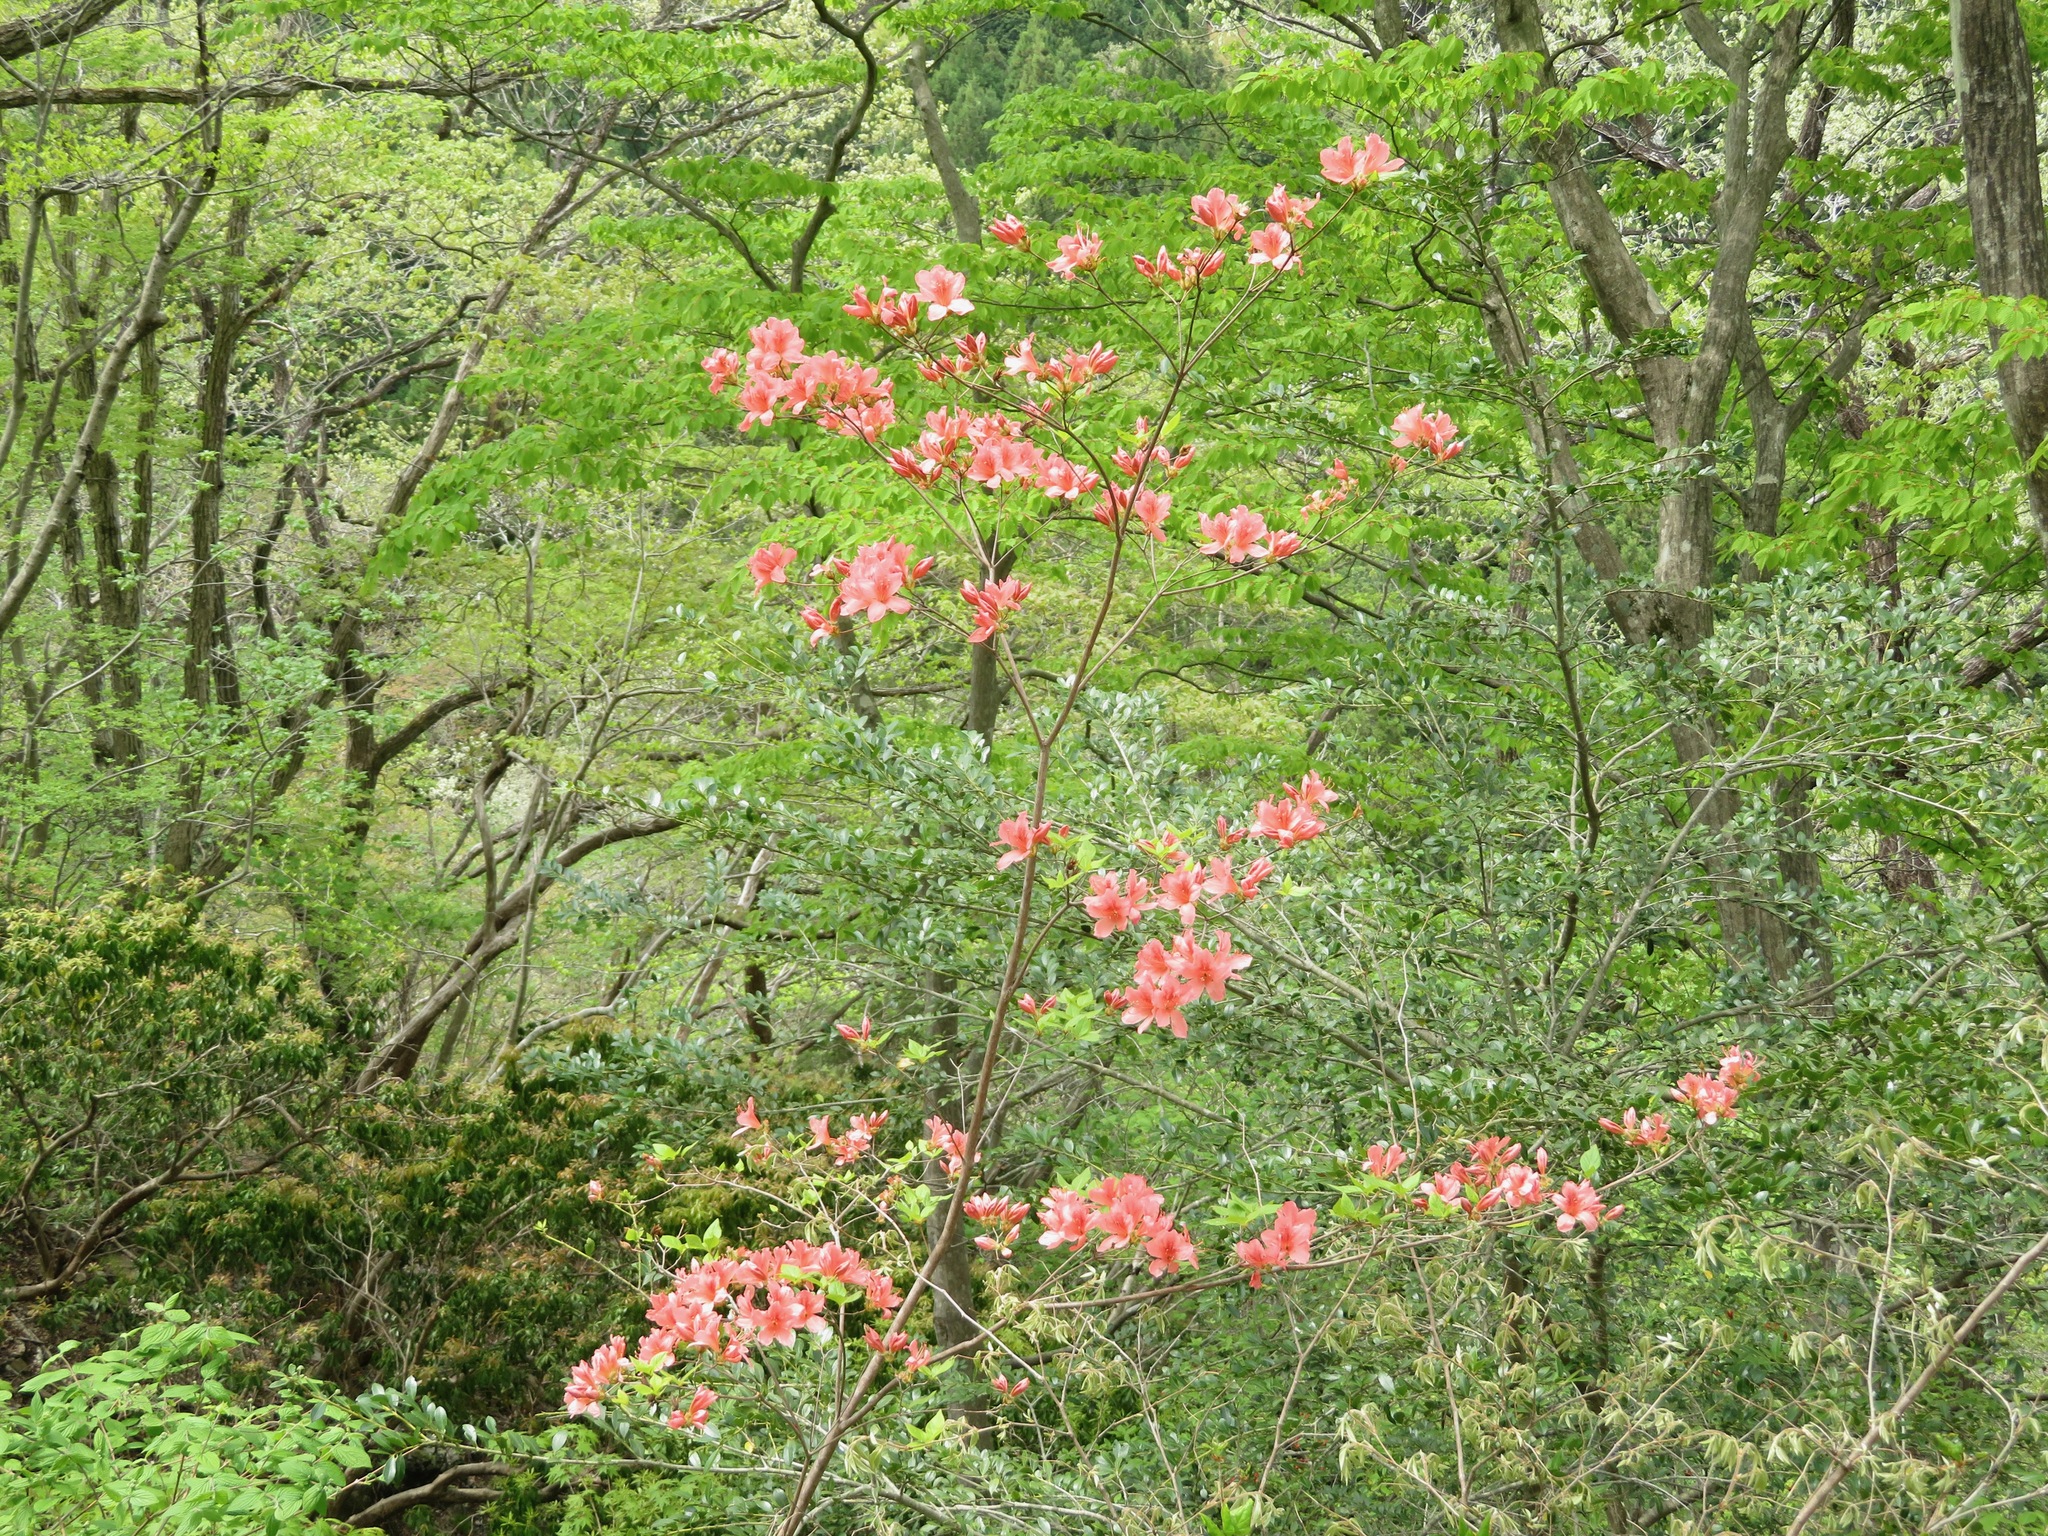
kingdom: Plantae
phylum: Tracheophyta
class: Magnoliopsida
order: Ericales
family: Ericaceae
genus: Rhododendron
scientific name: Rhododendron kaempferi
